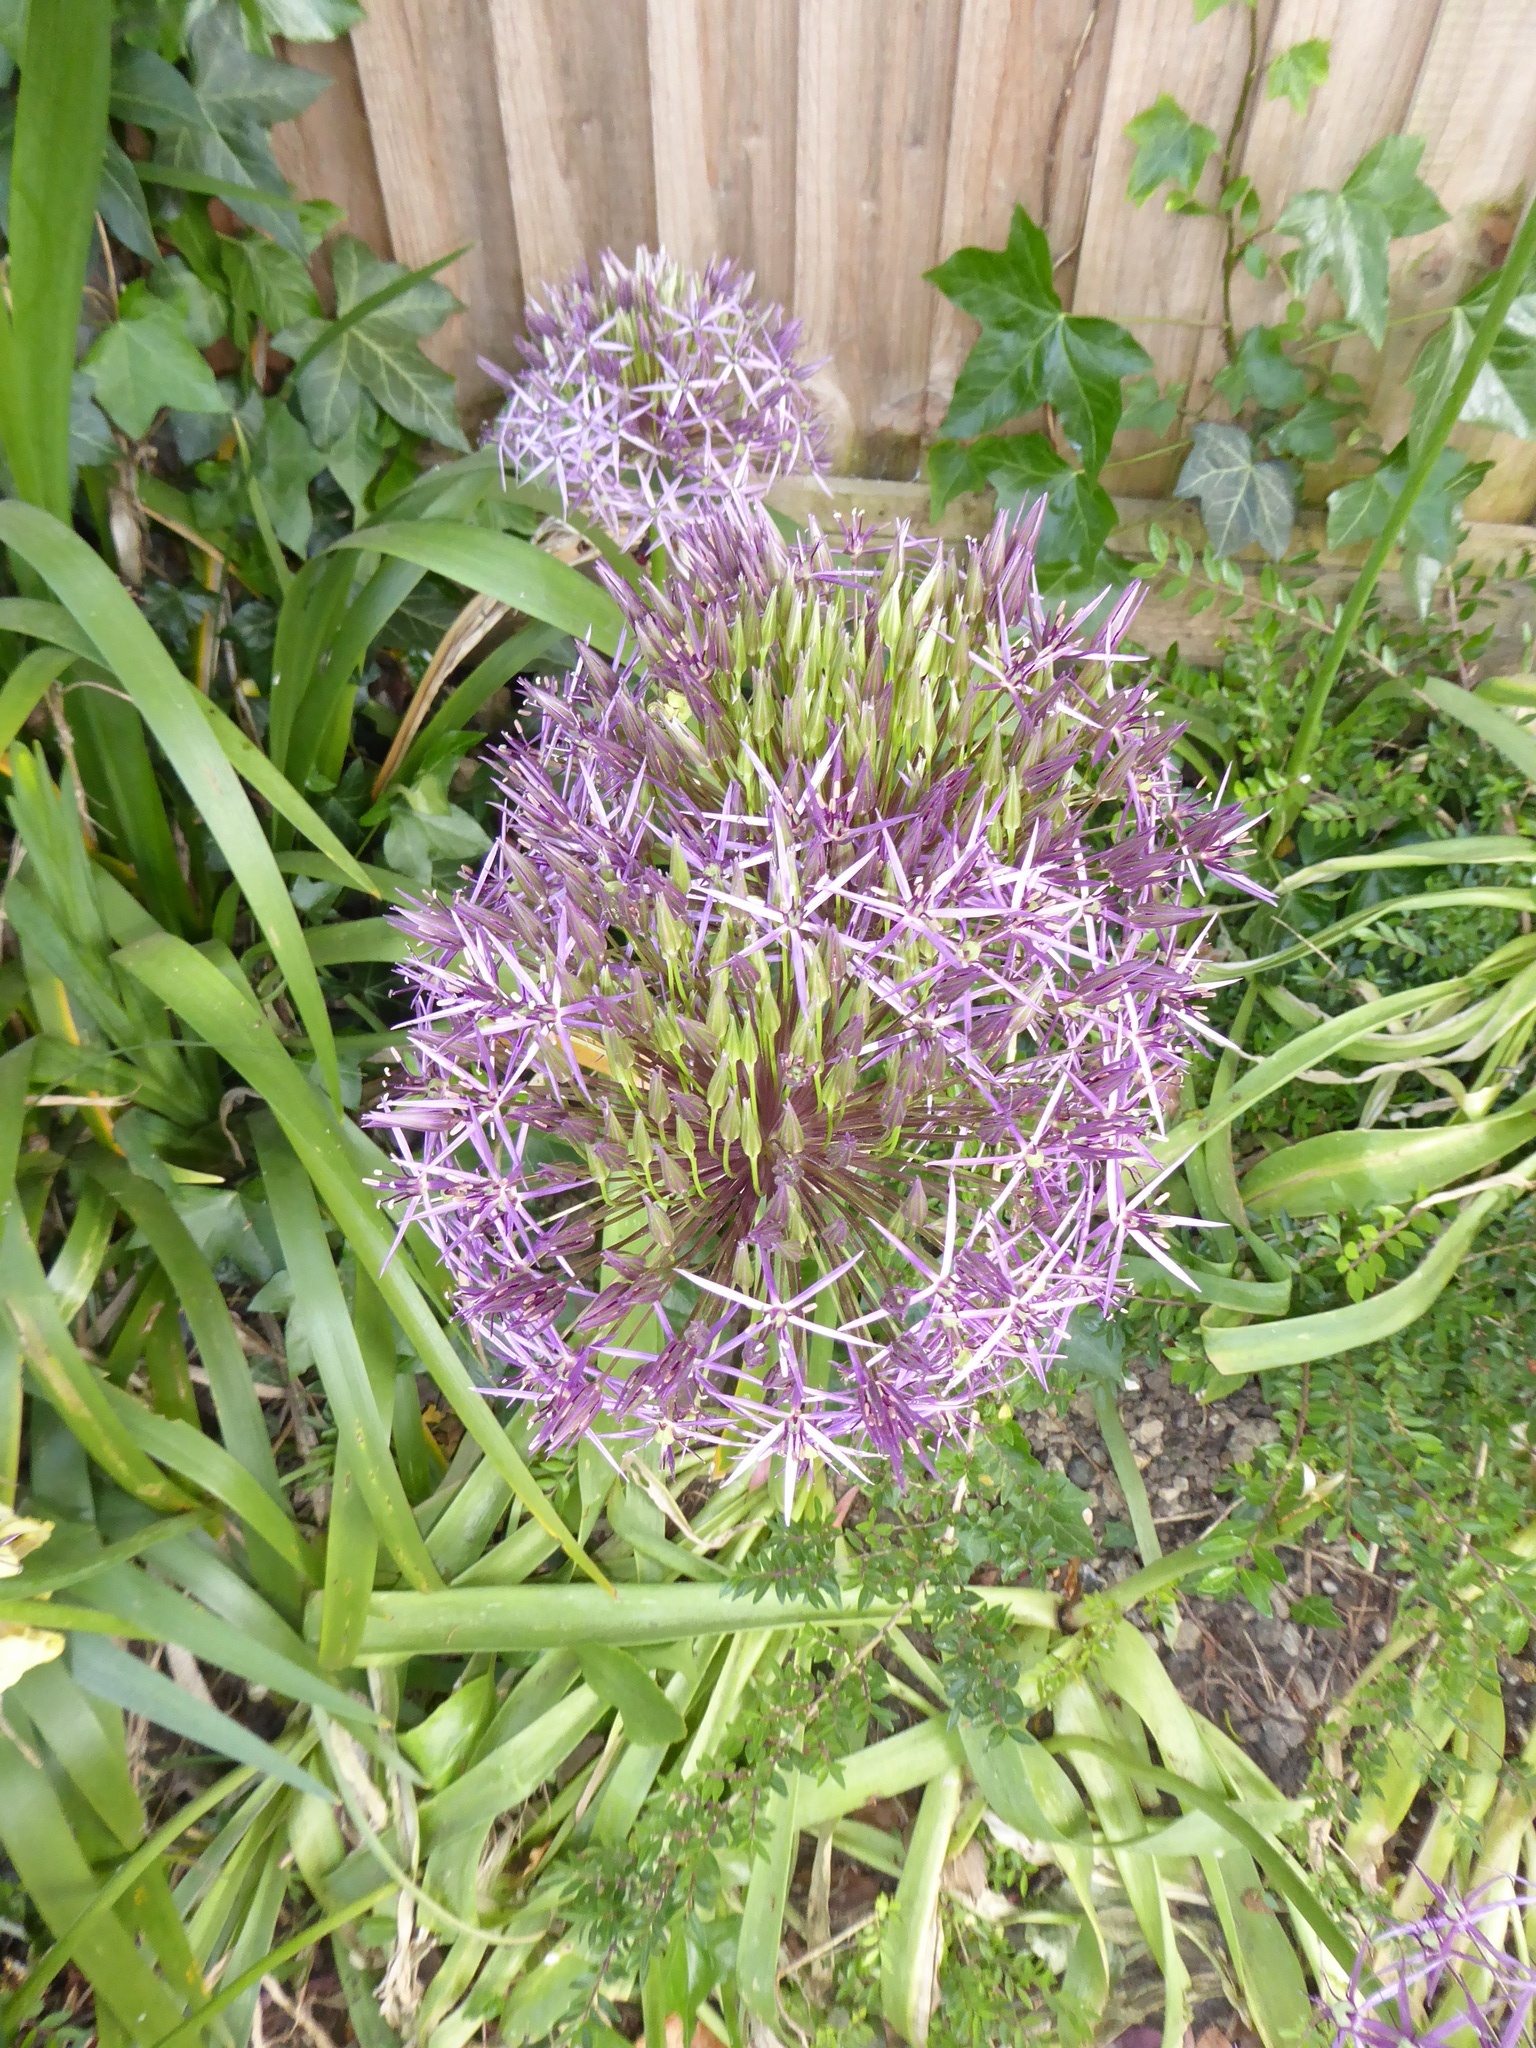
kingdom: Plantae
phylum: Tracheophyta
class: Liliopsida
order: Asparagales
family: Amaryllidaceae
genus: Allium
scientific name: Allium cristophii
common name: Persian onion
